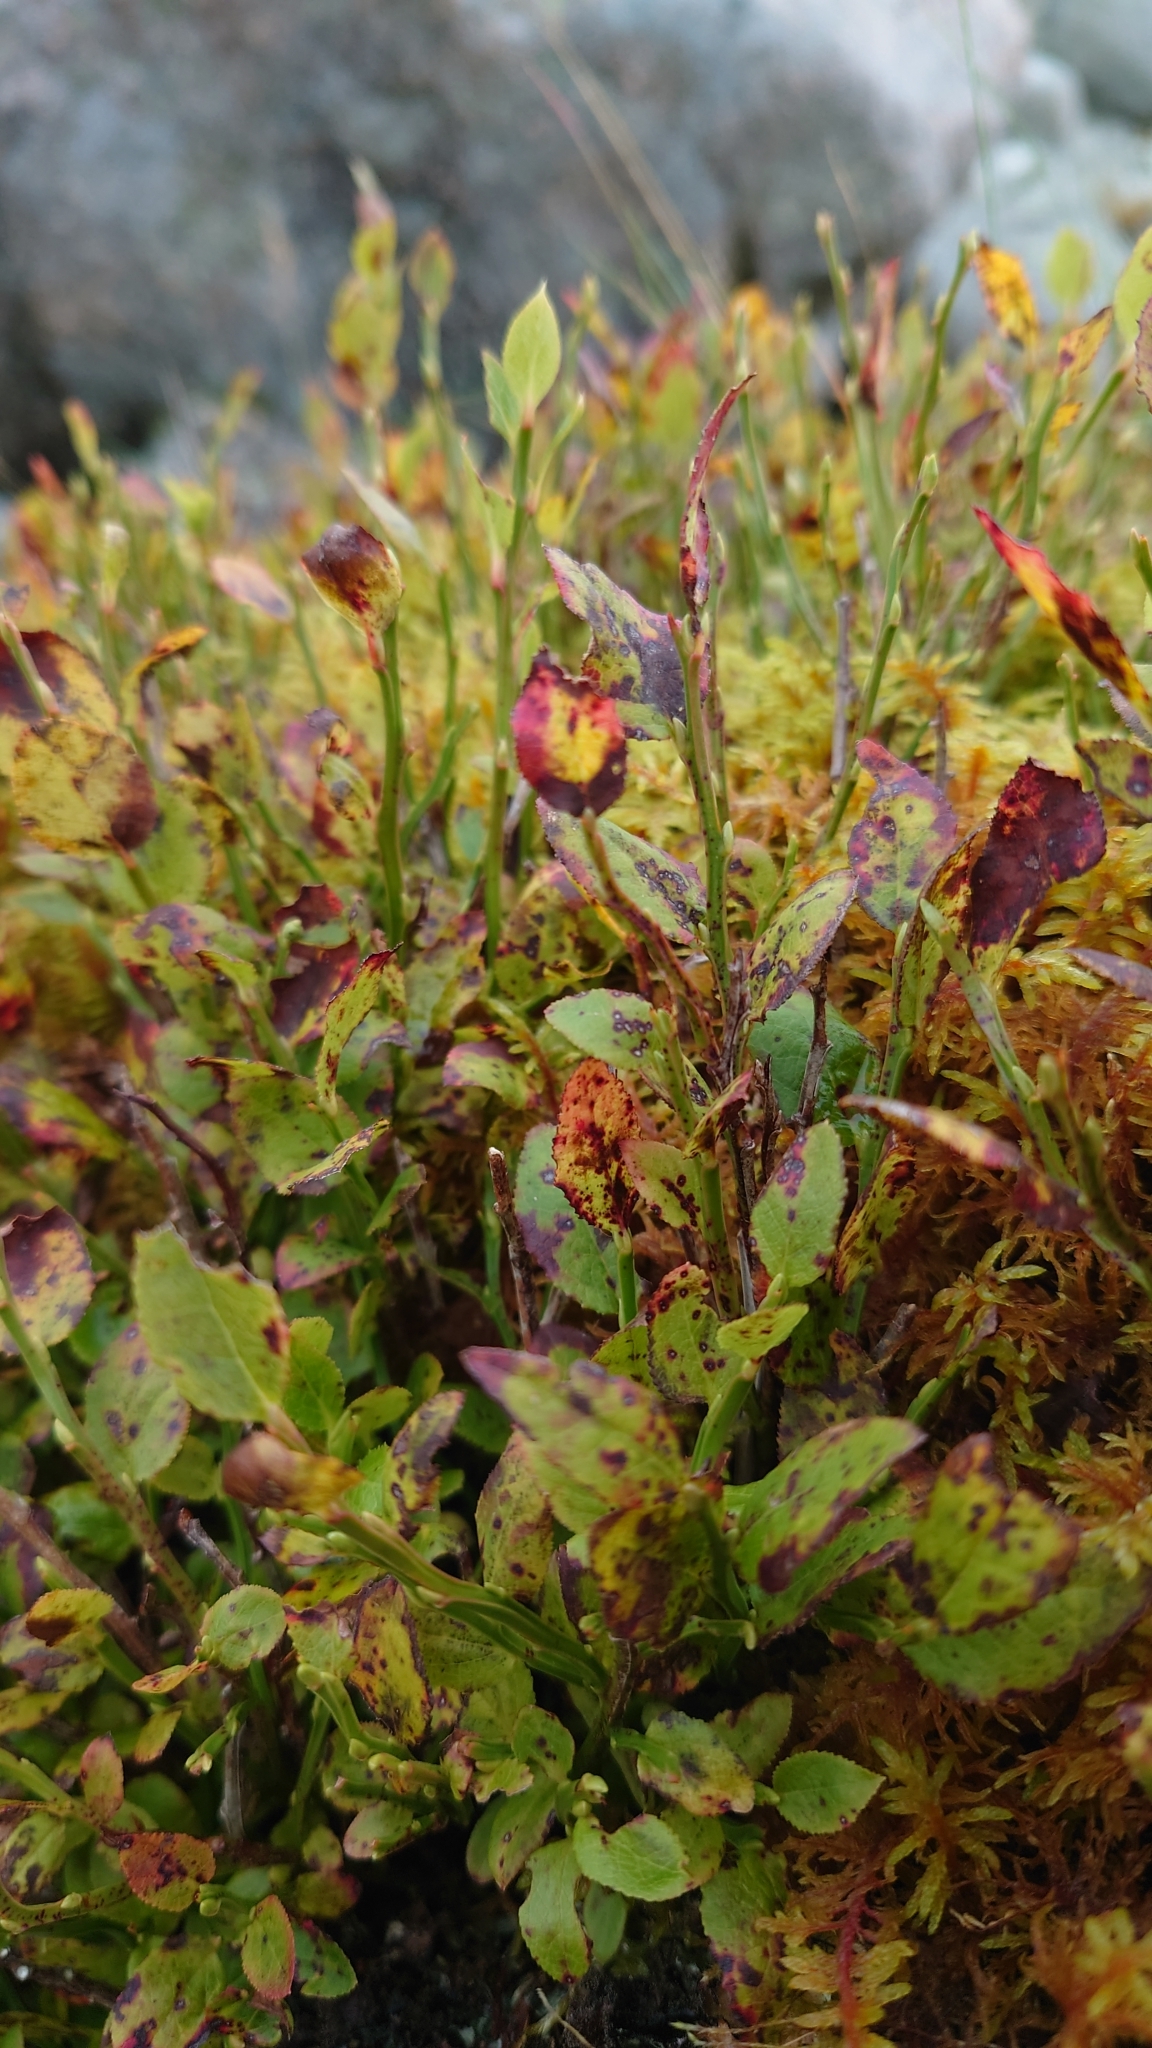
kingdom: Plantae
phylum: Tracheophyta
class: Magnoliopsida
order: Ericales
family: Ericaceae
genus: Vaccinium
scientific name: Vaccinium myrtillus
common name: Bilberry
